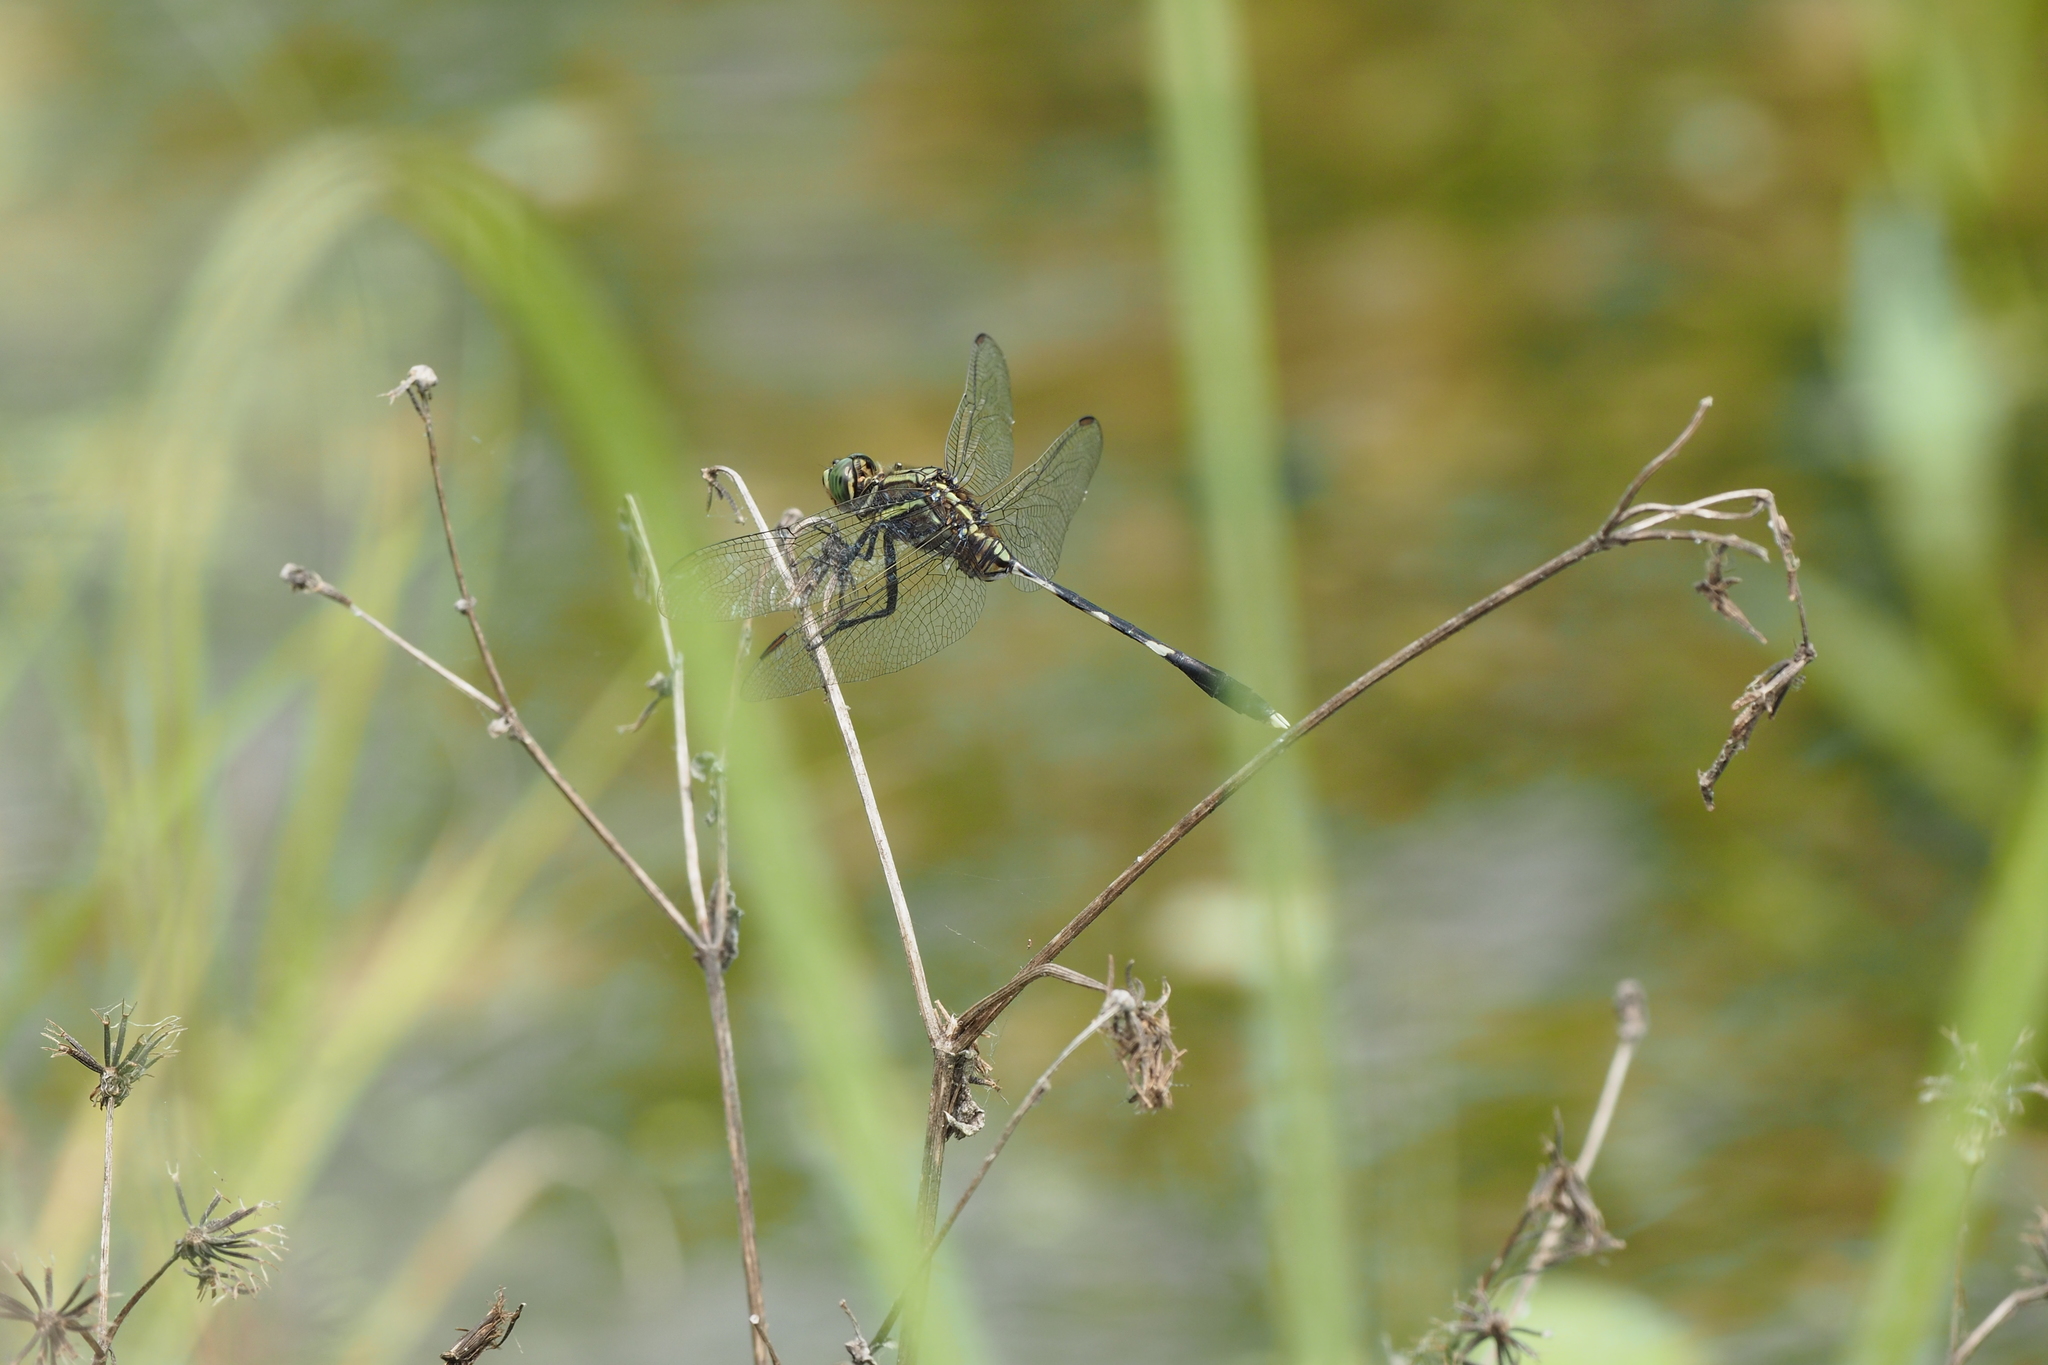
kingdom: Animalia
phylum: Arthropoda
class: Insecta
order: Odonata
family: Libellulidae
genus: Orthetrum
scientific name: Orthetrum sabina
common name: Slender skimmer
